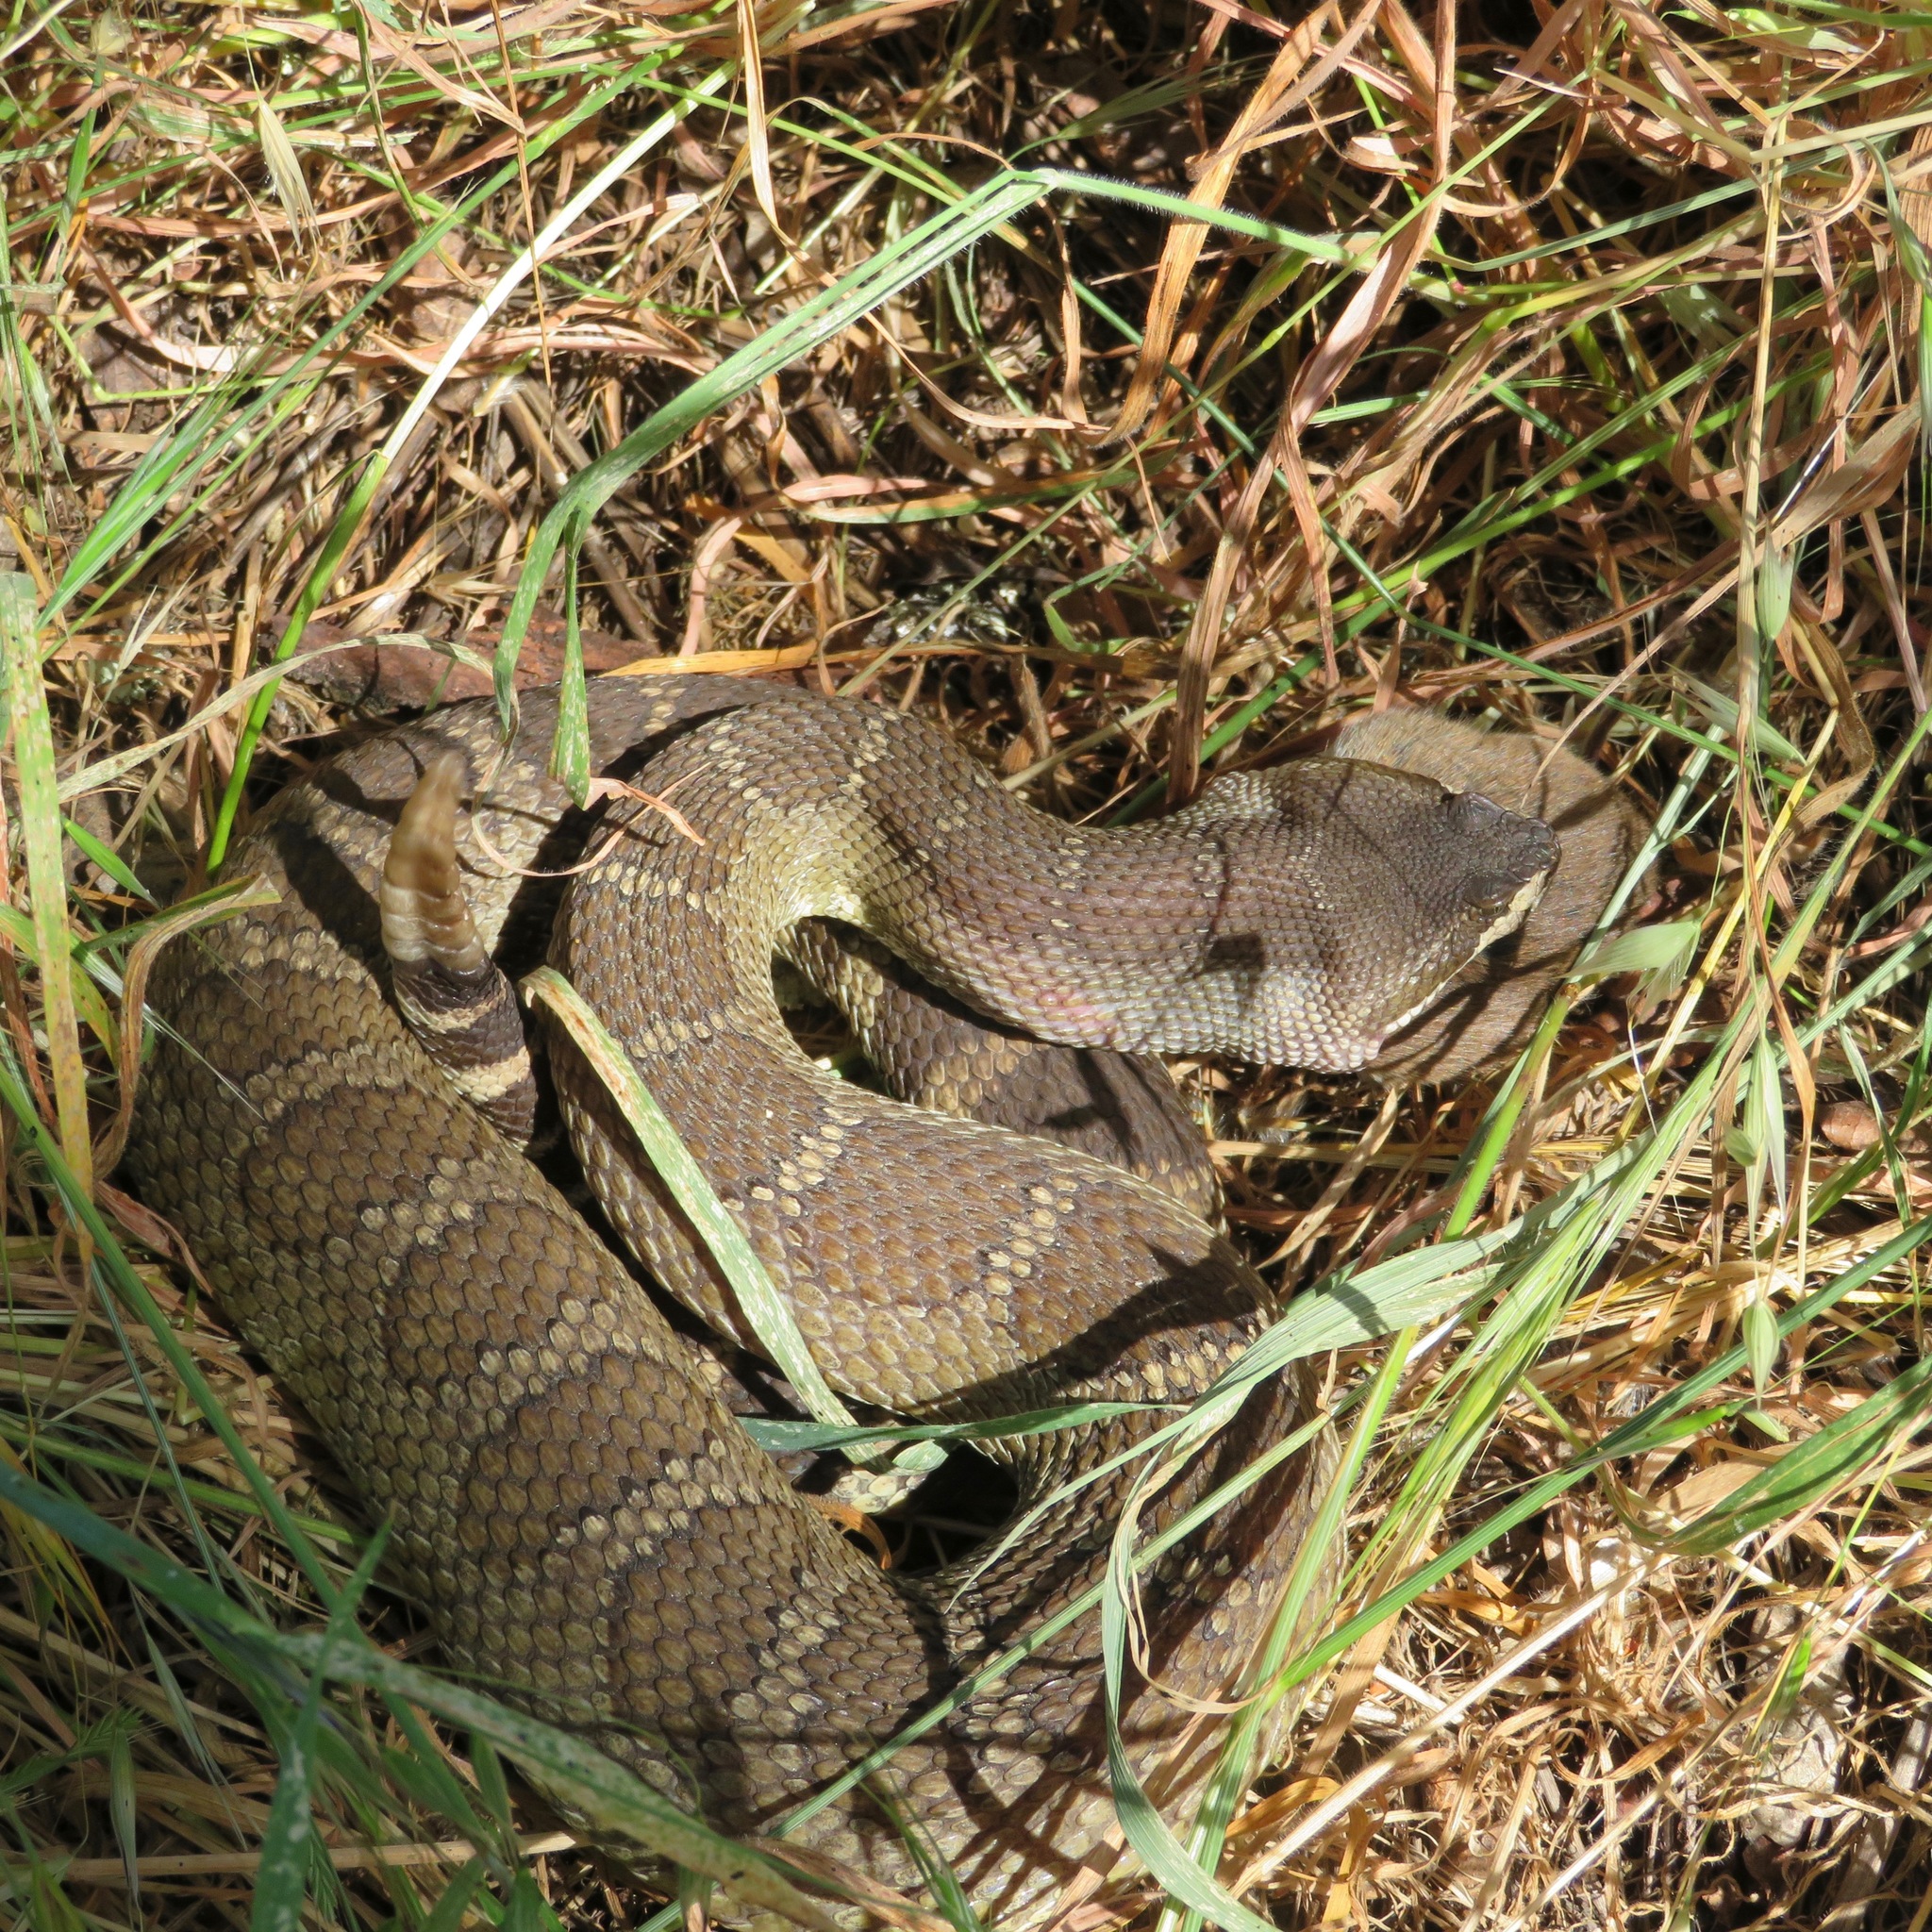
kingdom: Animalia
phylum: Chordata
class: Squamata
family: Viperidae
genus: Crotalus
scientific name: Crotalus oreganus
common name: Abyssus
